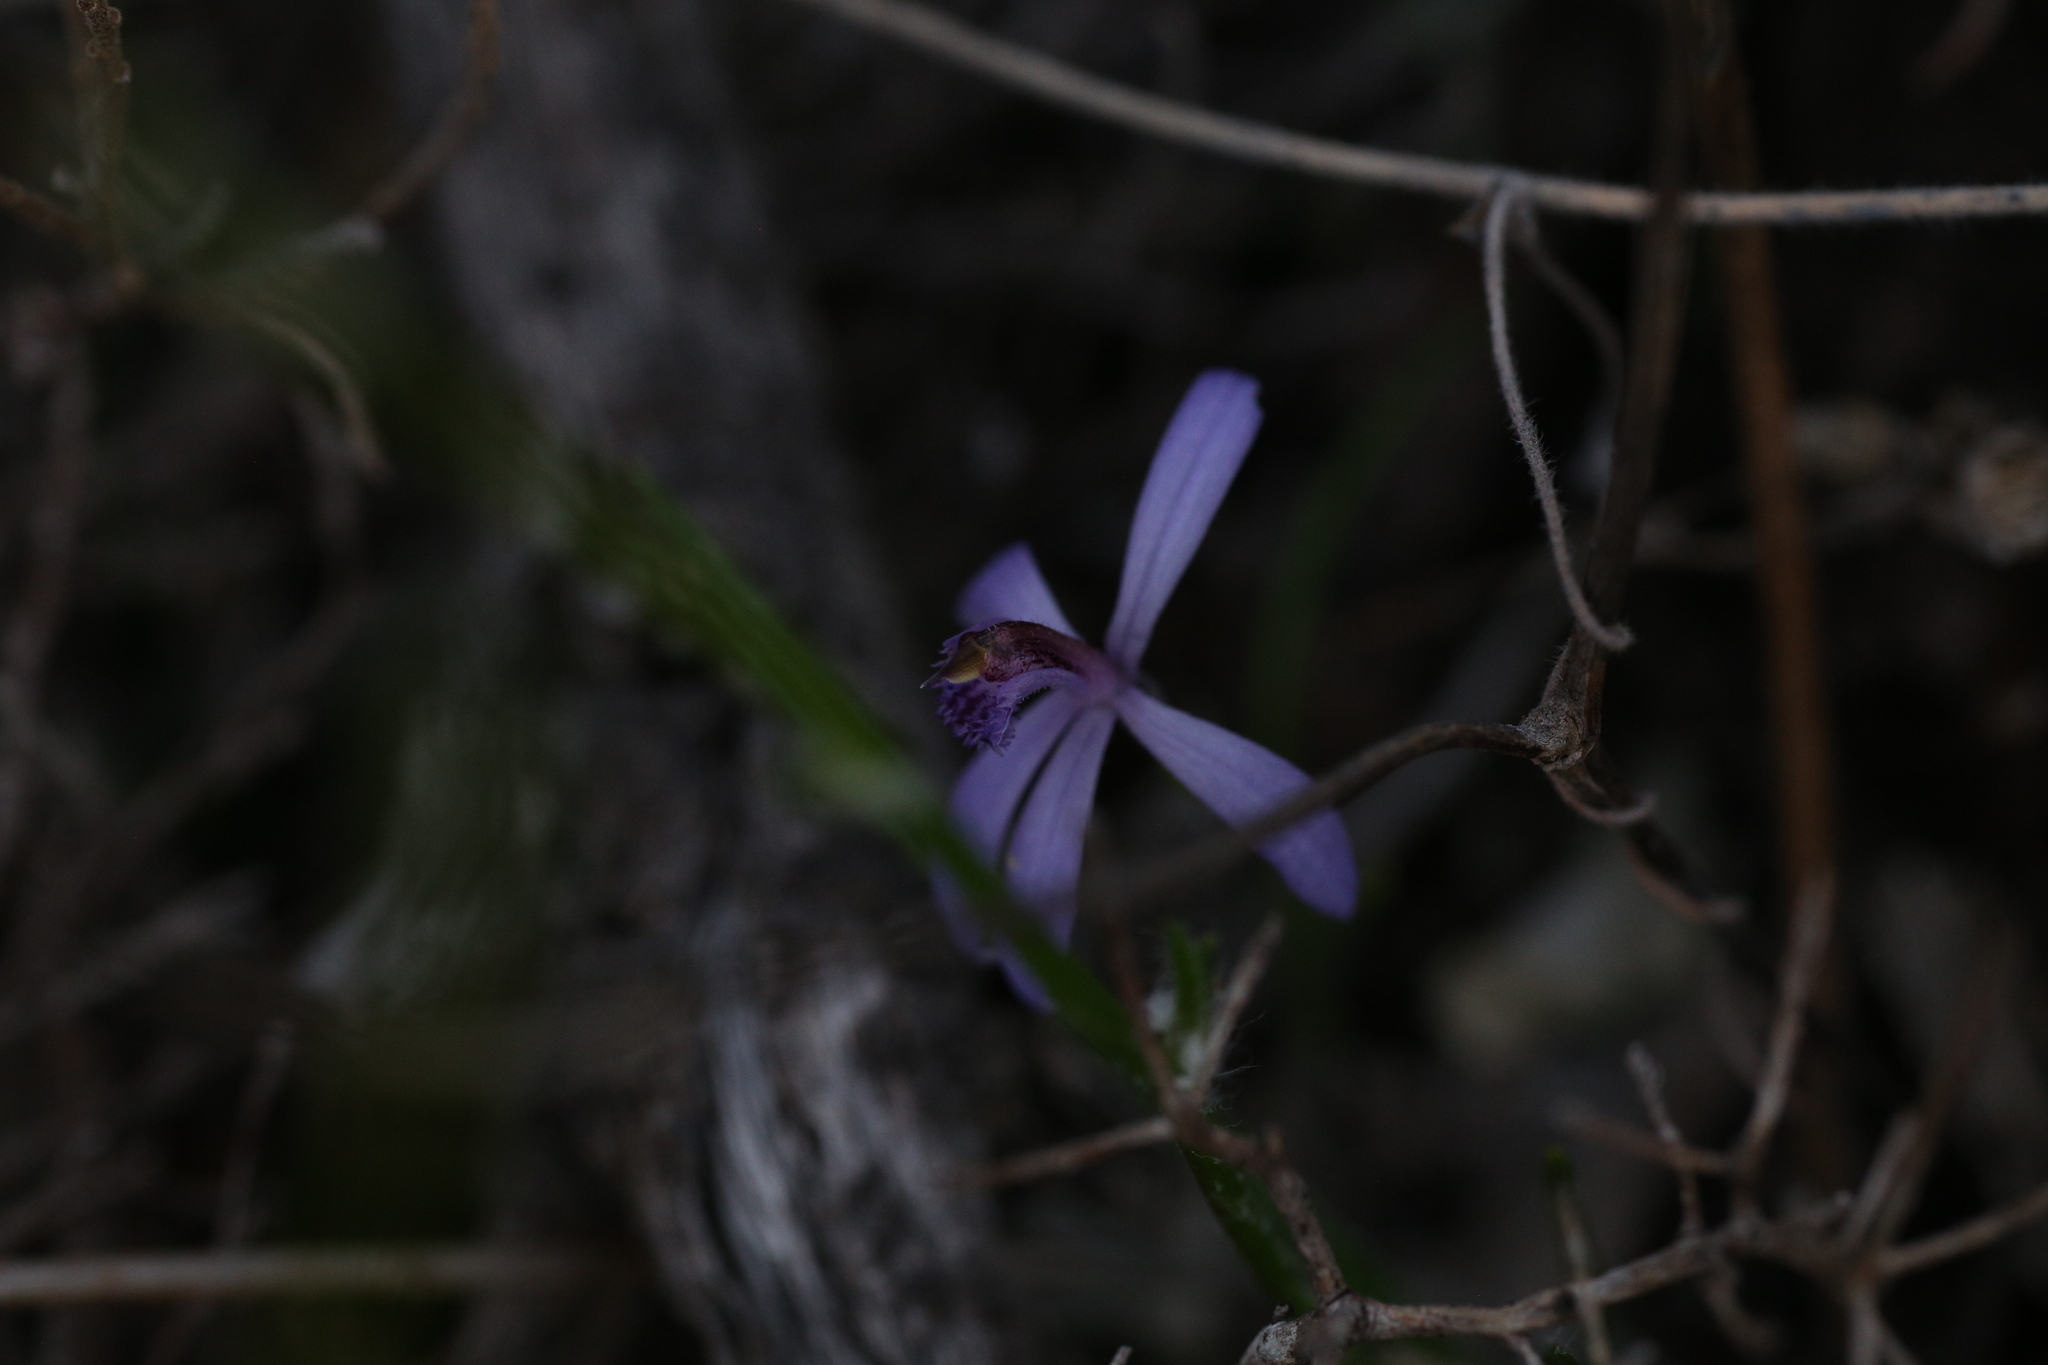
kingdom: Plantae
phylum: Tracheophyta
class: Liliopsida
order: Asparagales
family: Orchidaceae
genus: Pheladenia
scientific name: Pheladenia deformis
